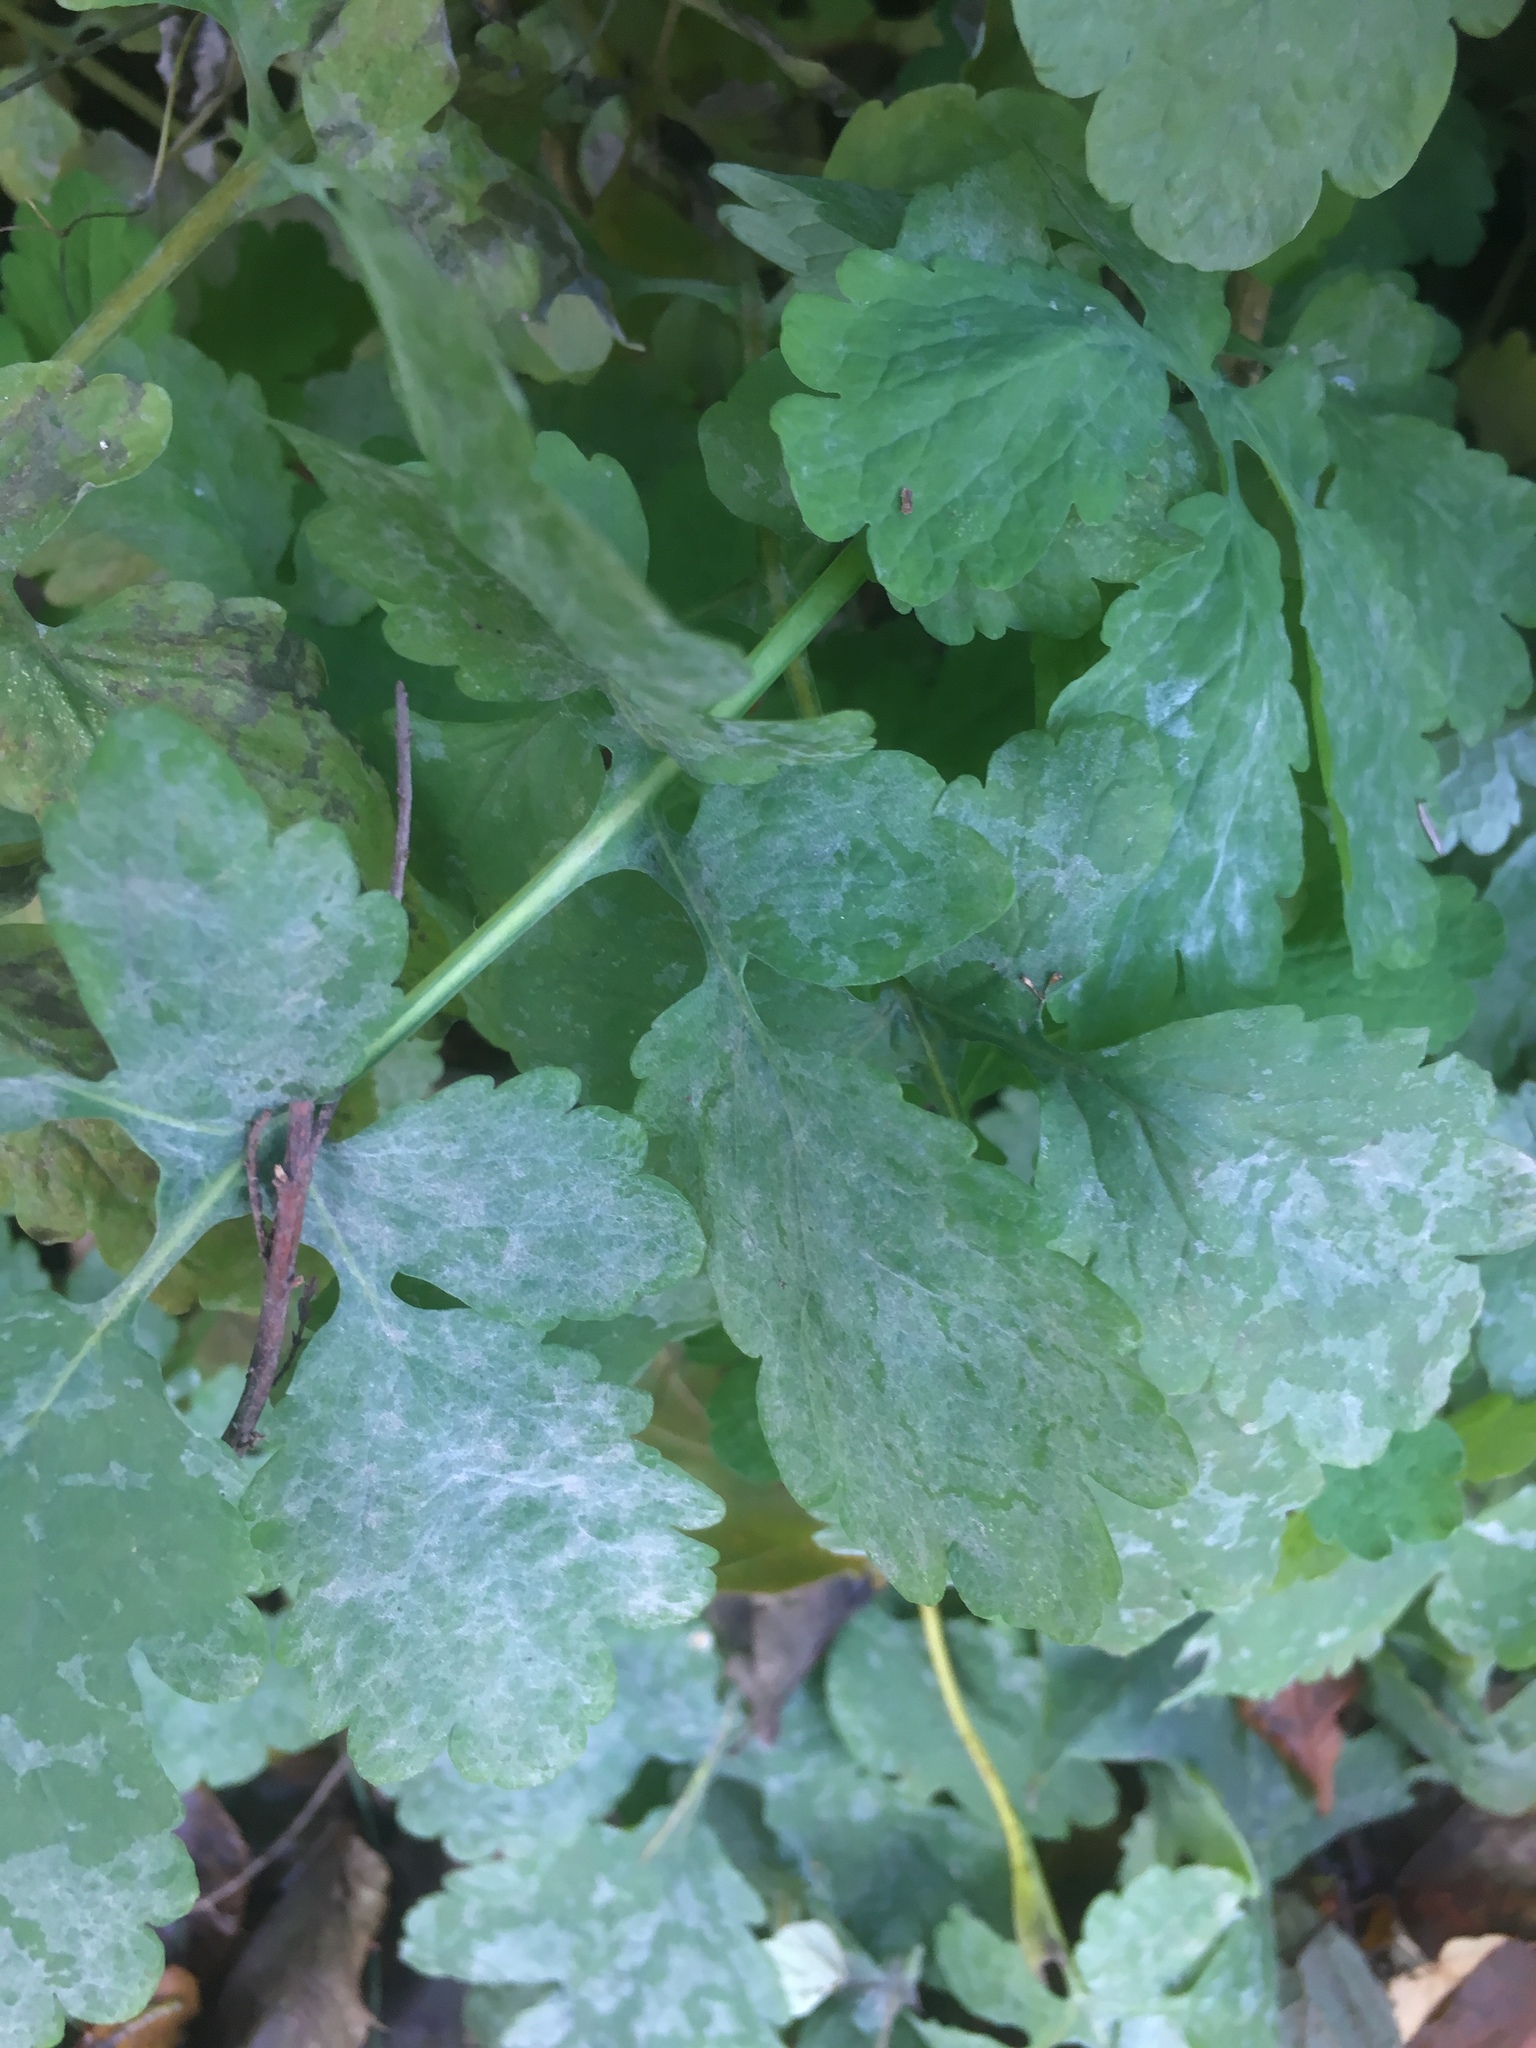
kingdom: Plantae
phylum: Tracheophyta
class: Magnoliopsida
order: Ranunculales
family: Papaveraceae
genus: Chelidonium
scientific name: Chelidonium majus
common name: Greater celandine
